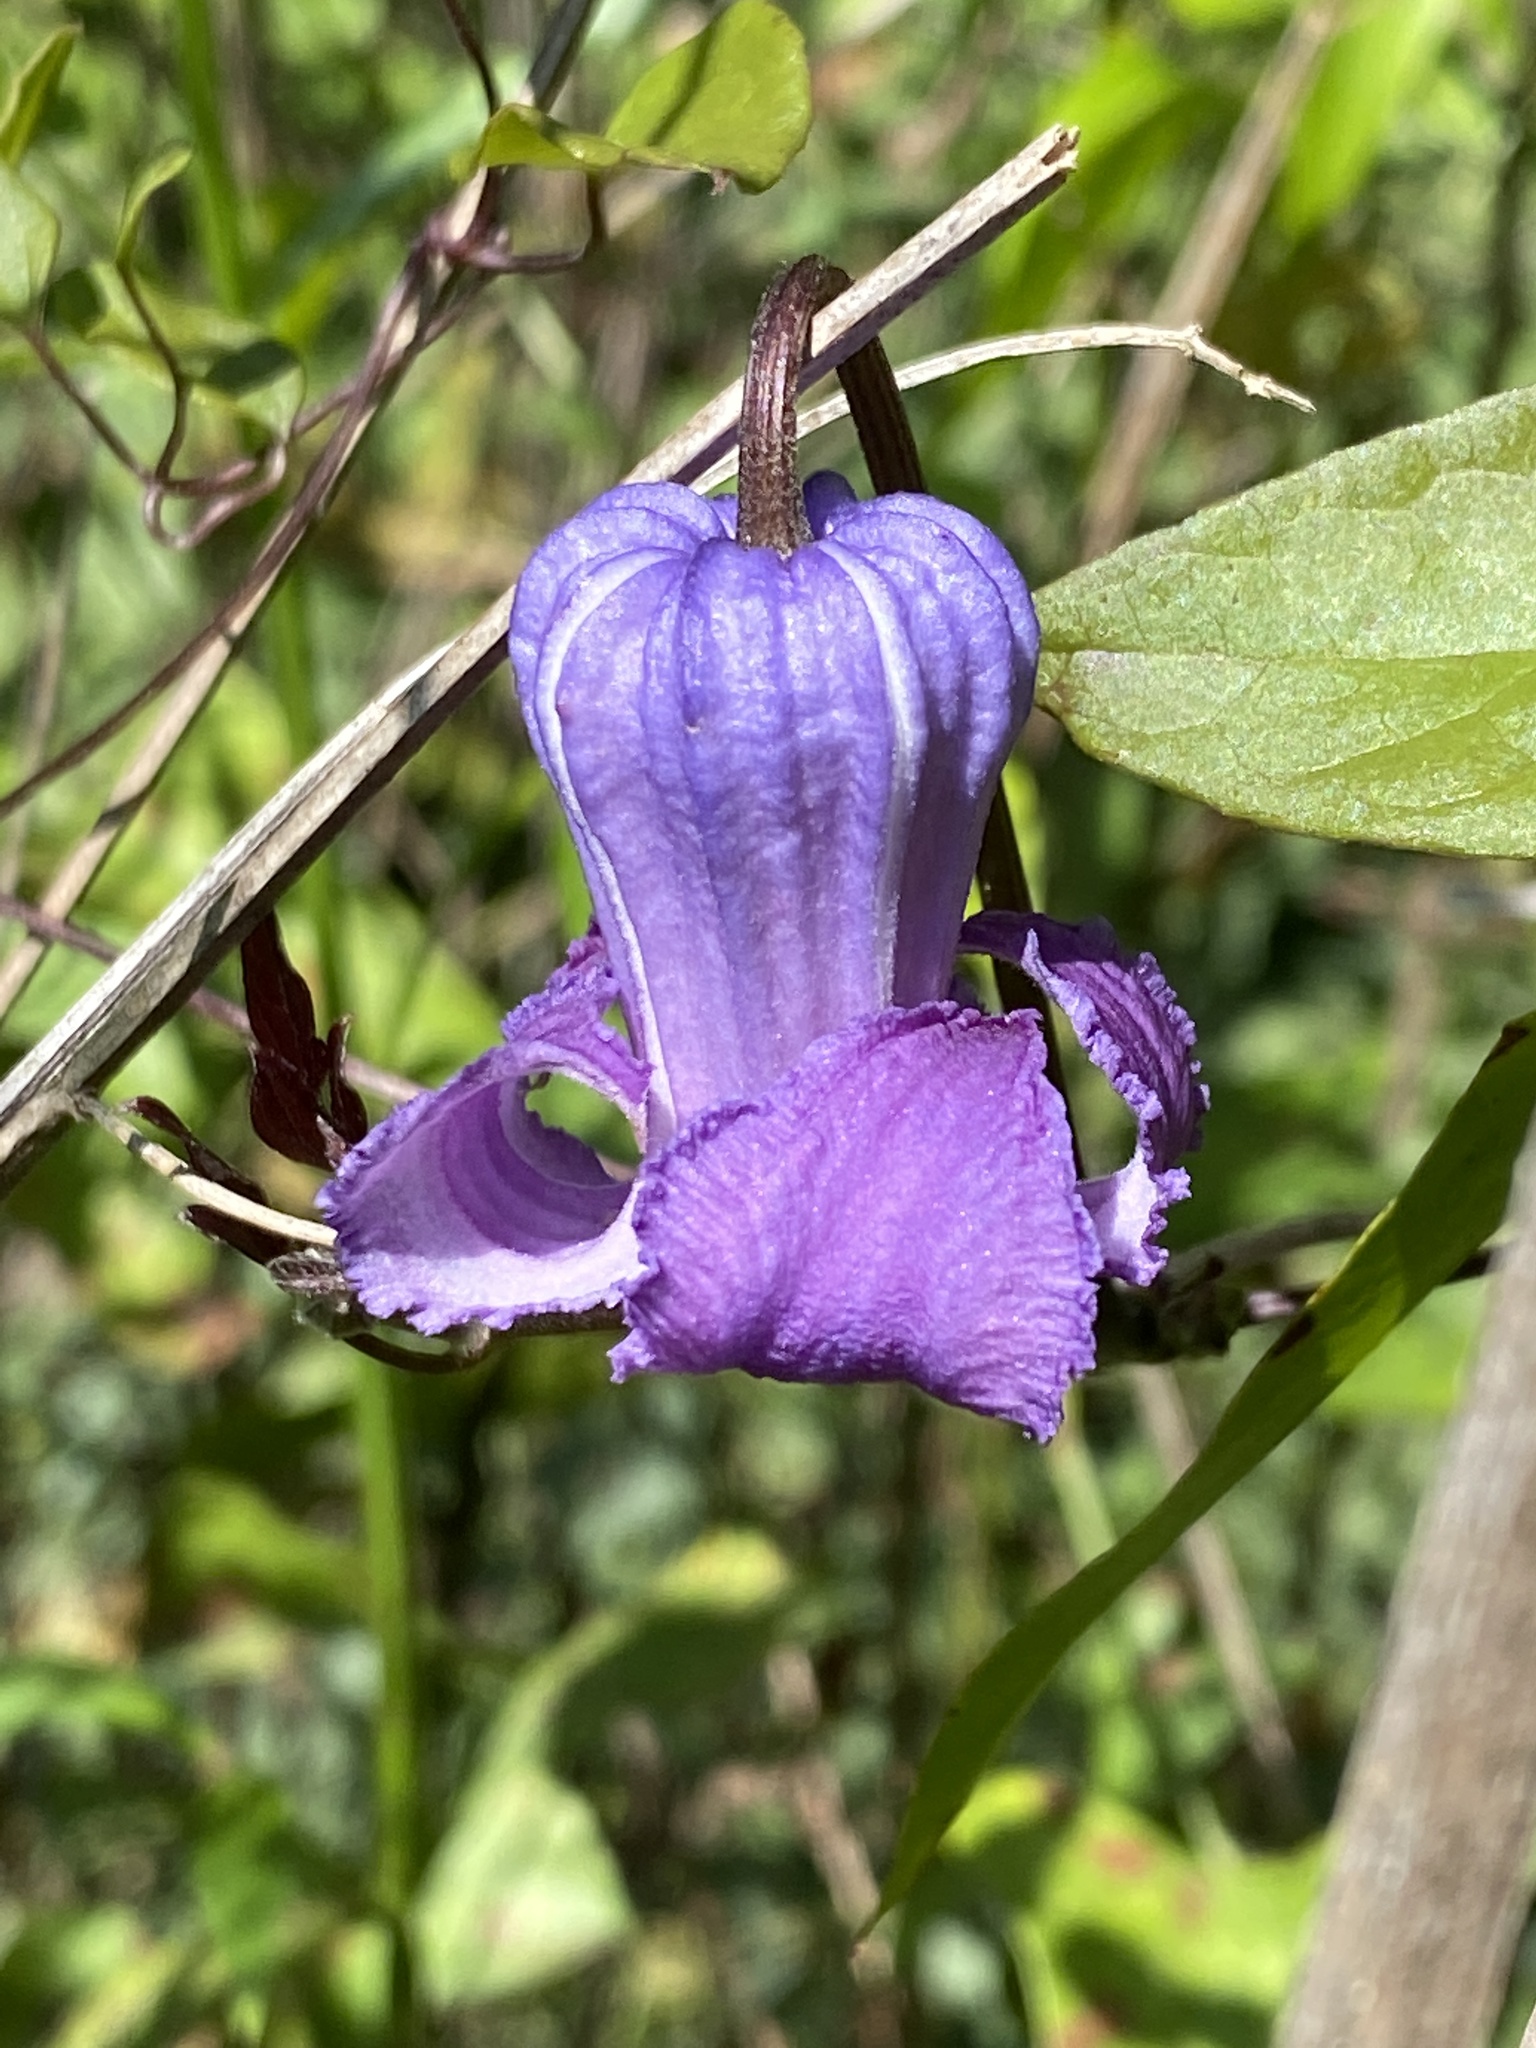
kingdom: Plantae
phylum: Tracheophyta
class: Magnoliopsida
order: Ranunculales
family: Ranunculaceae
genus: Clematis
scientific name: Clematis crispa
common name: Curly clematis
